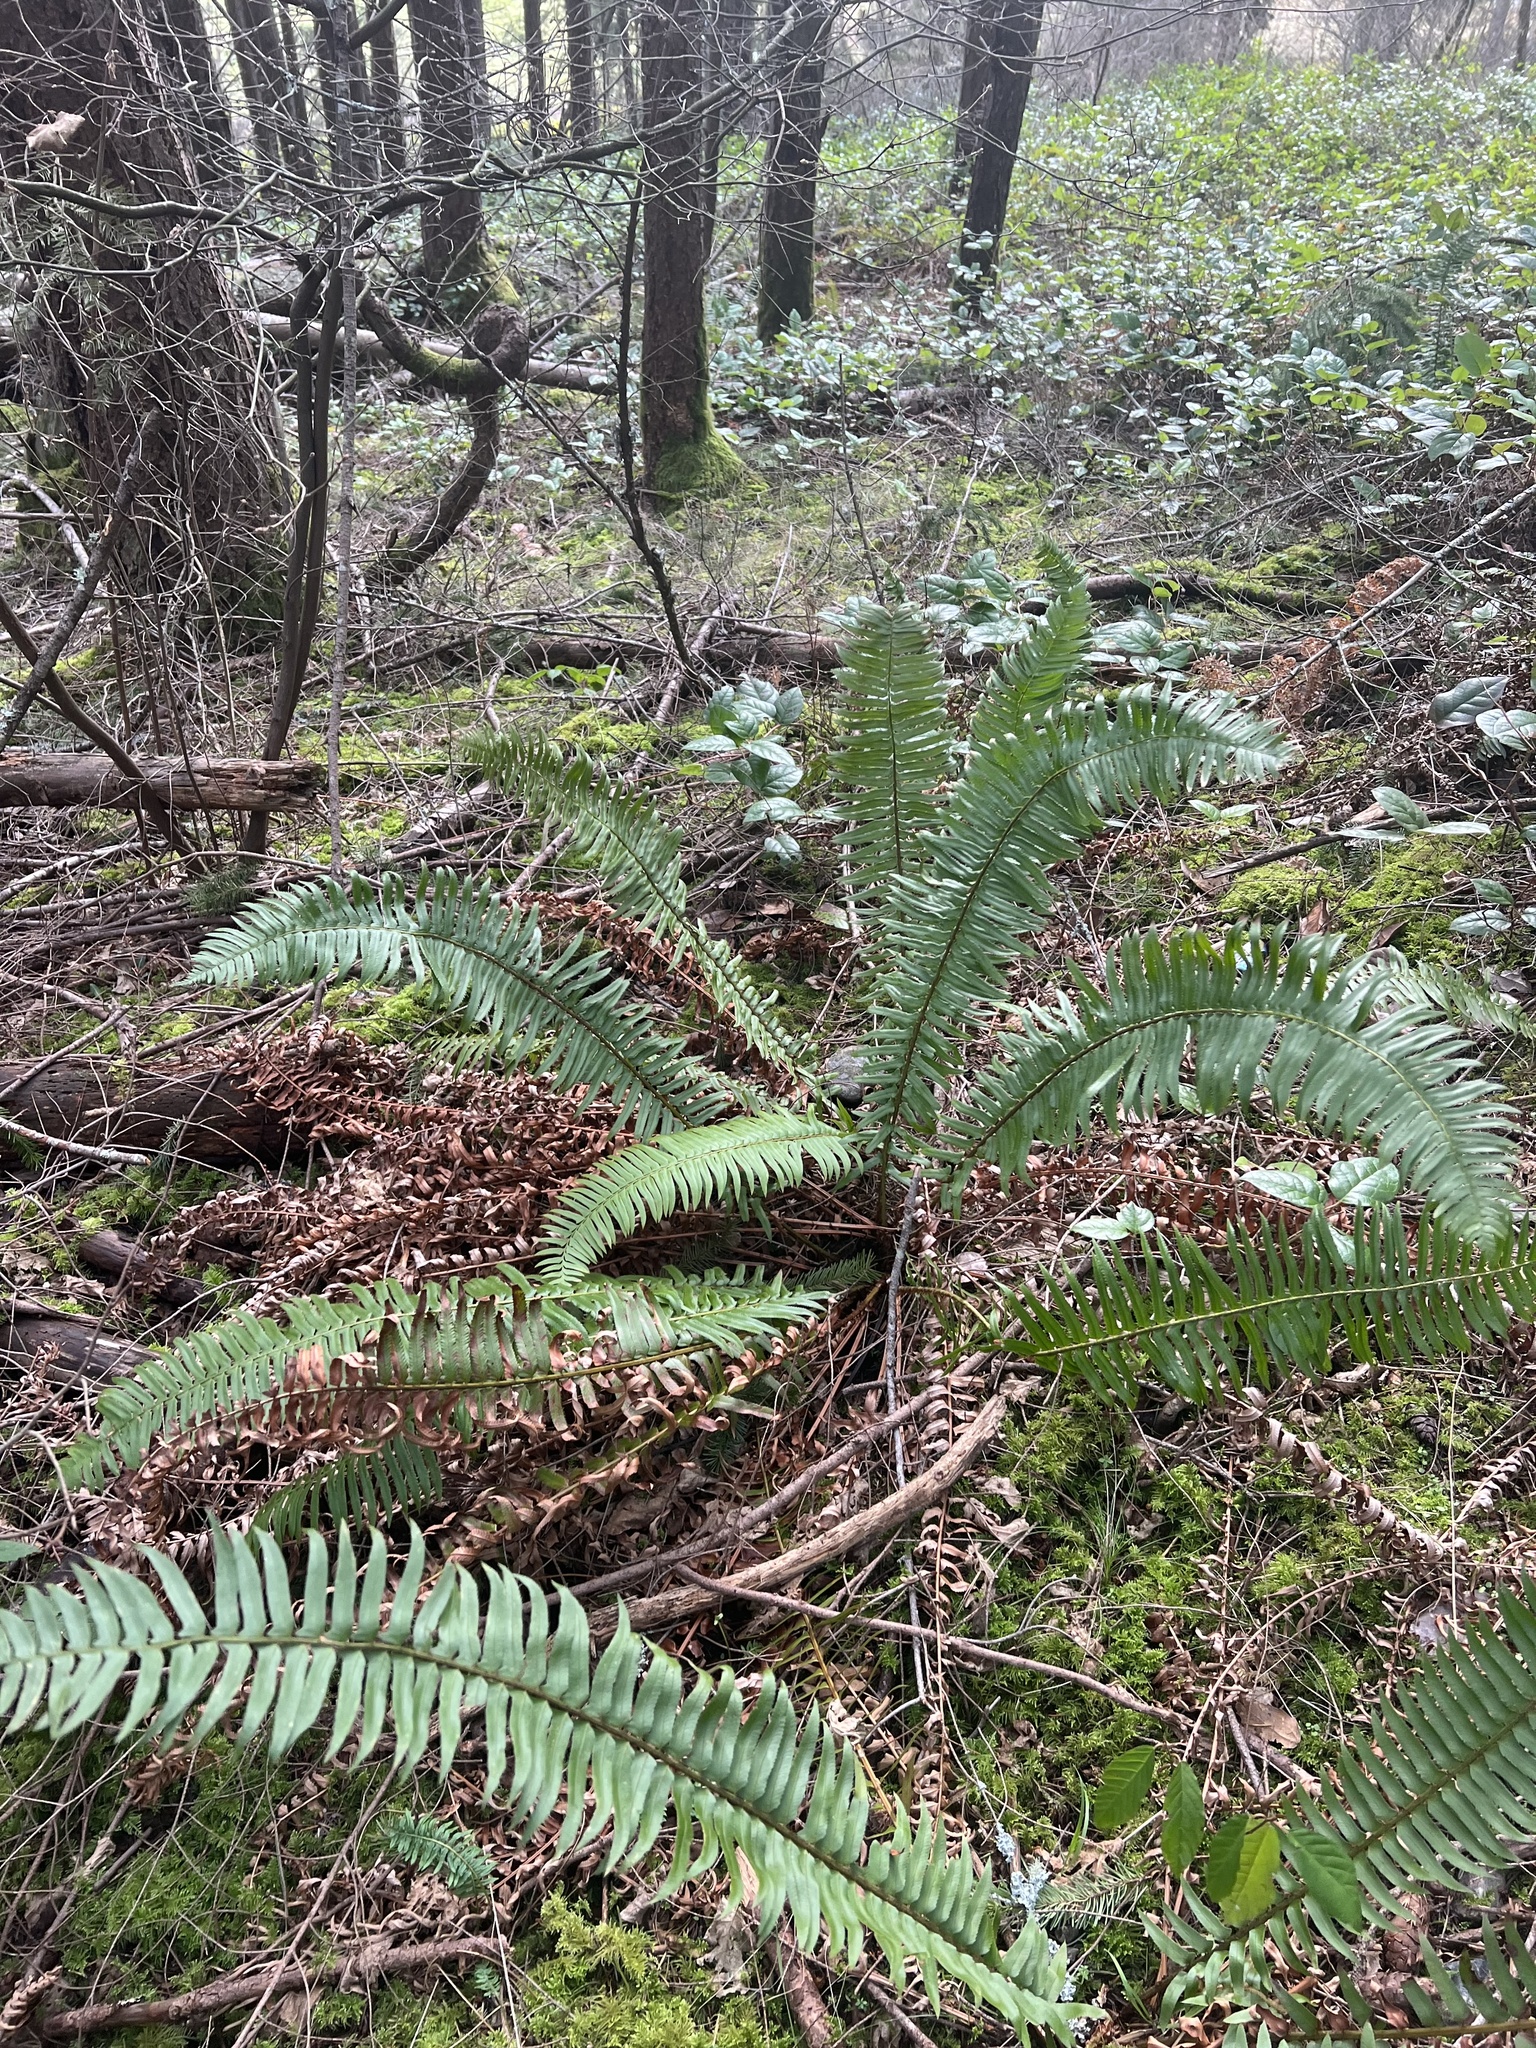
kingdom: Plantae
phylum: Tracheophyta
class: Polypodiopsida
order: Polypodiales
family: Dryopteridaceae
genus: Polystichum
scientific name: Polystichum munitum
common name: Western sword-fern
